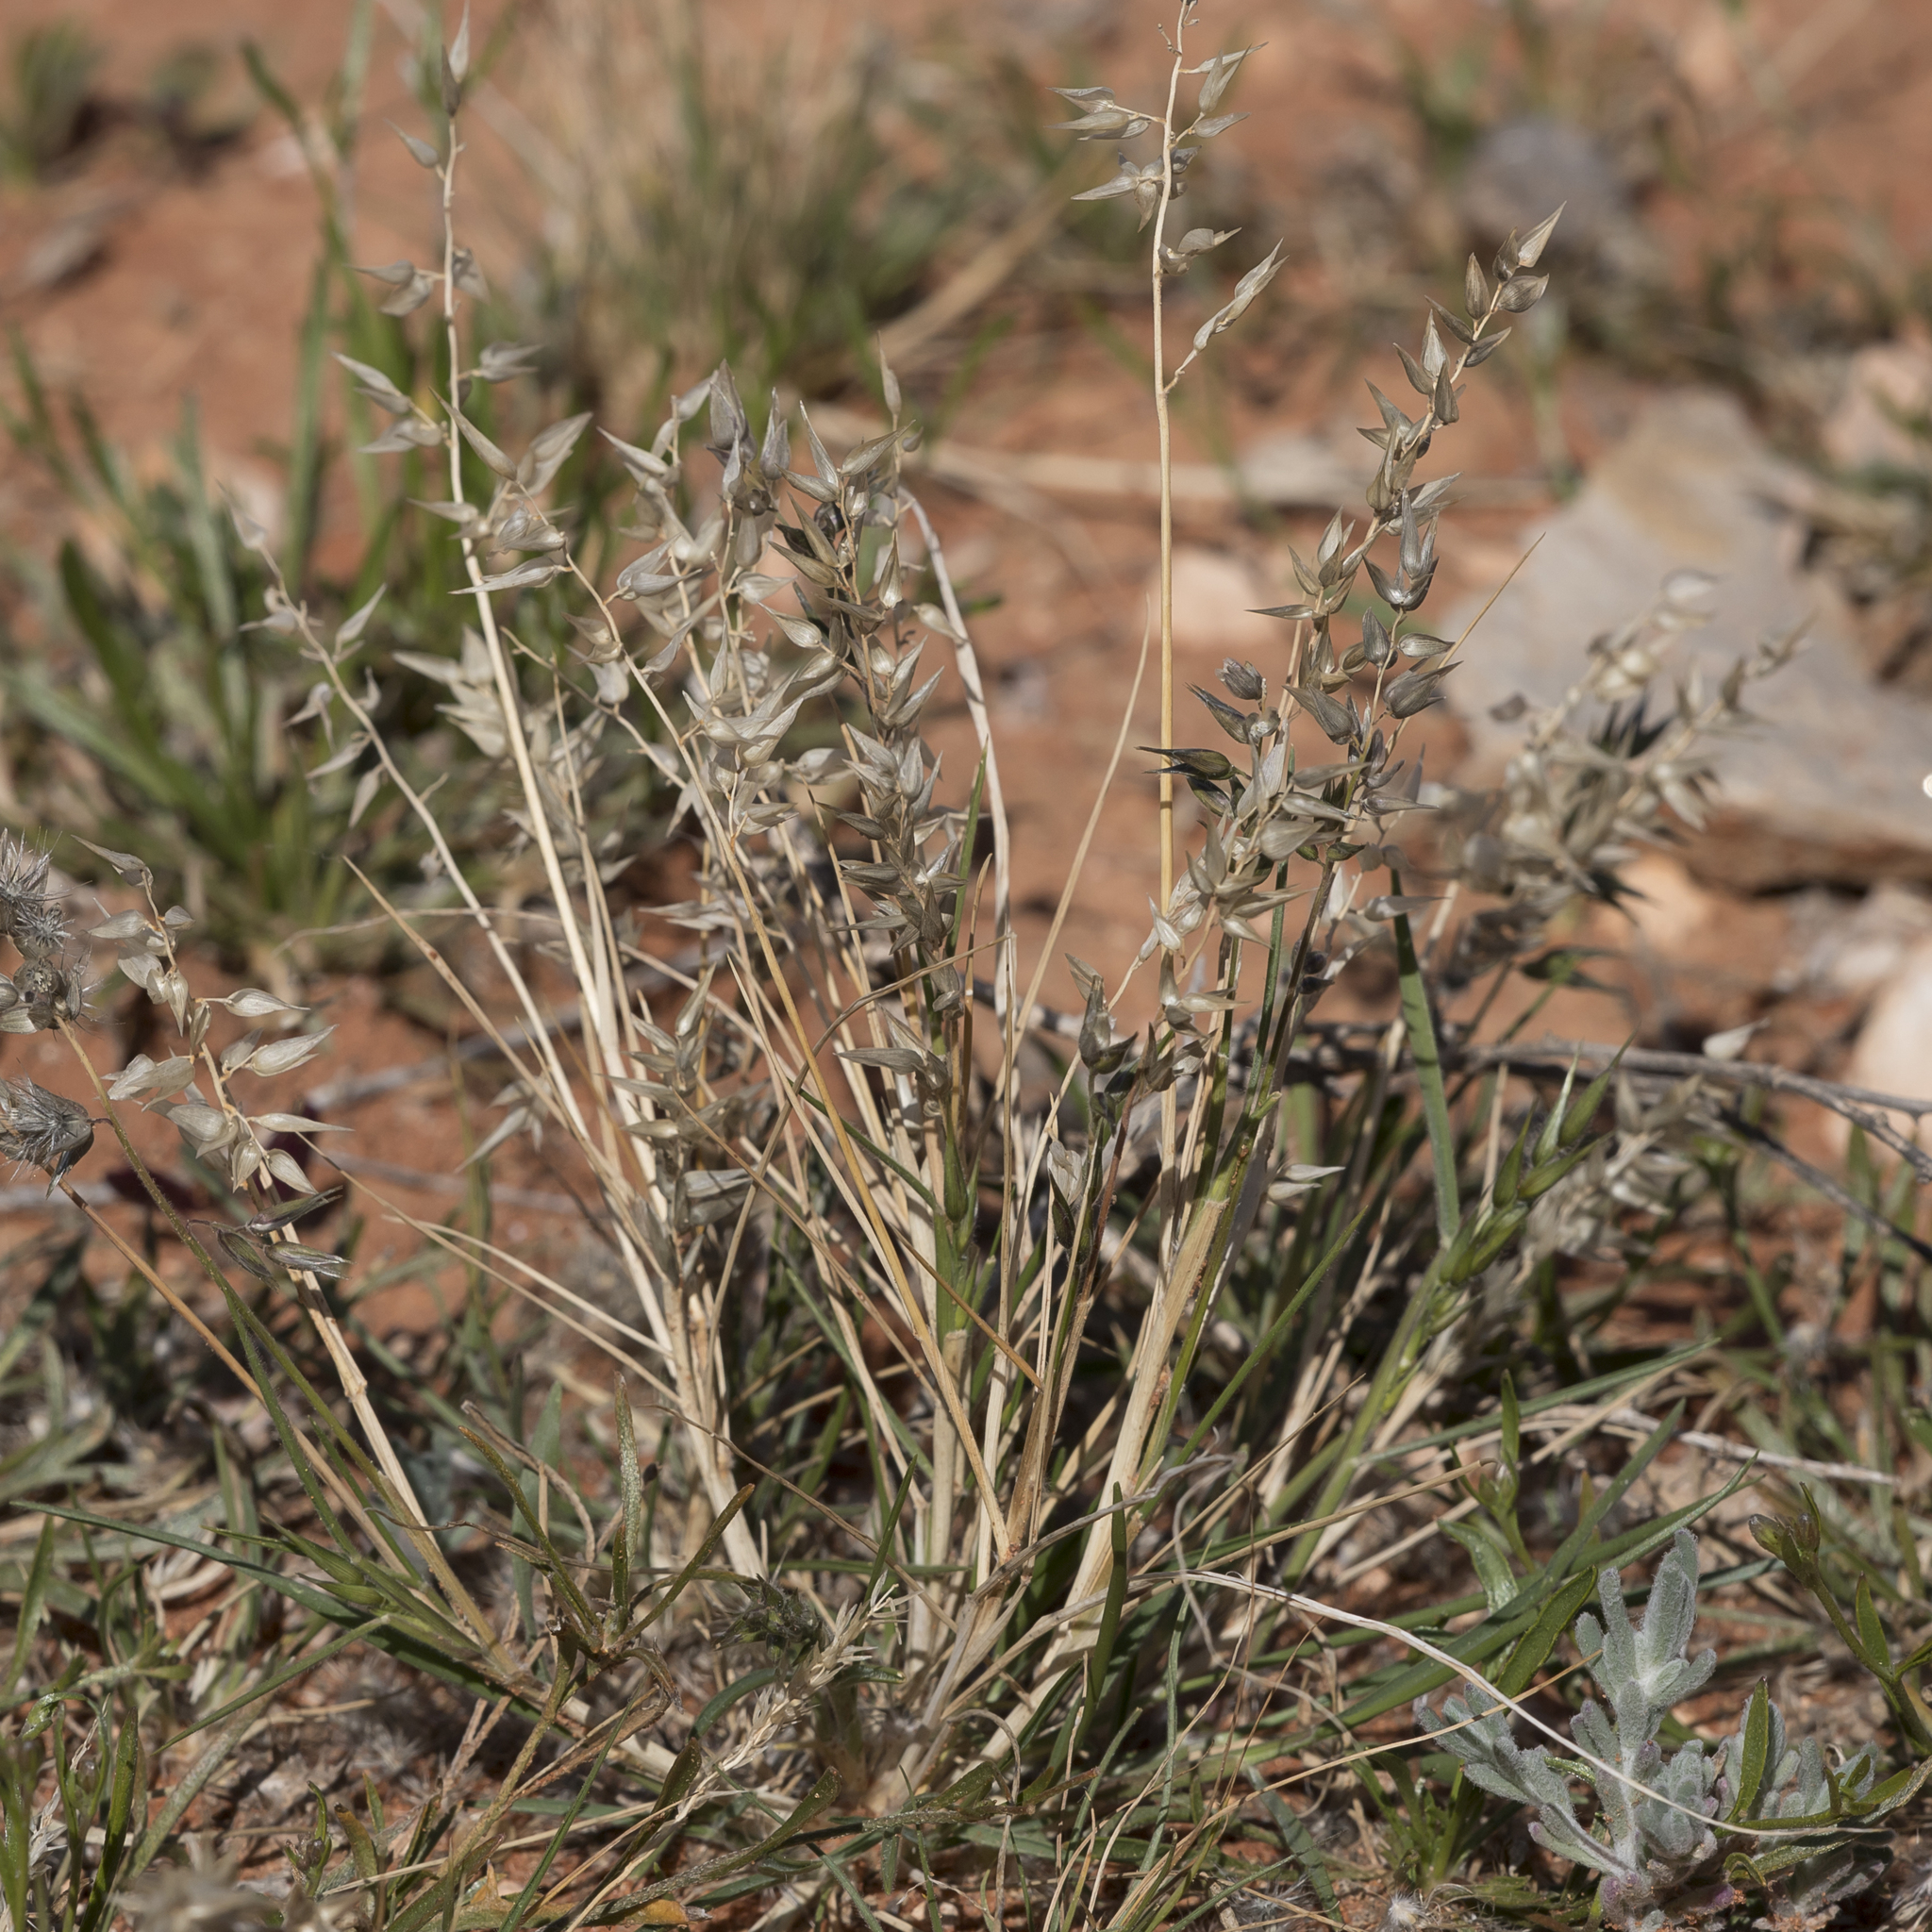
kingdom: Plantae
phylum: Tracheophyta
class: Liliopsida
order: Poales
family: Poaceae
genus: Enneapogon
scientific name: Enneapogon avenaceus
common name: Hairy oat grass
